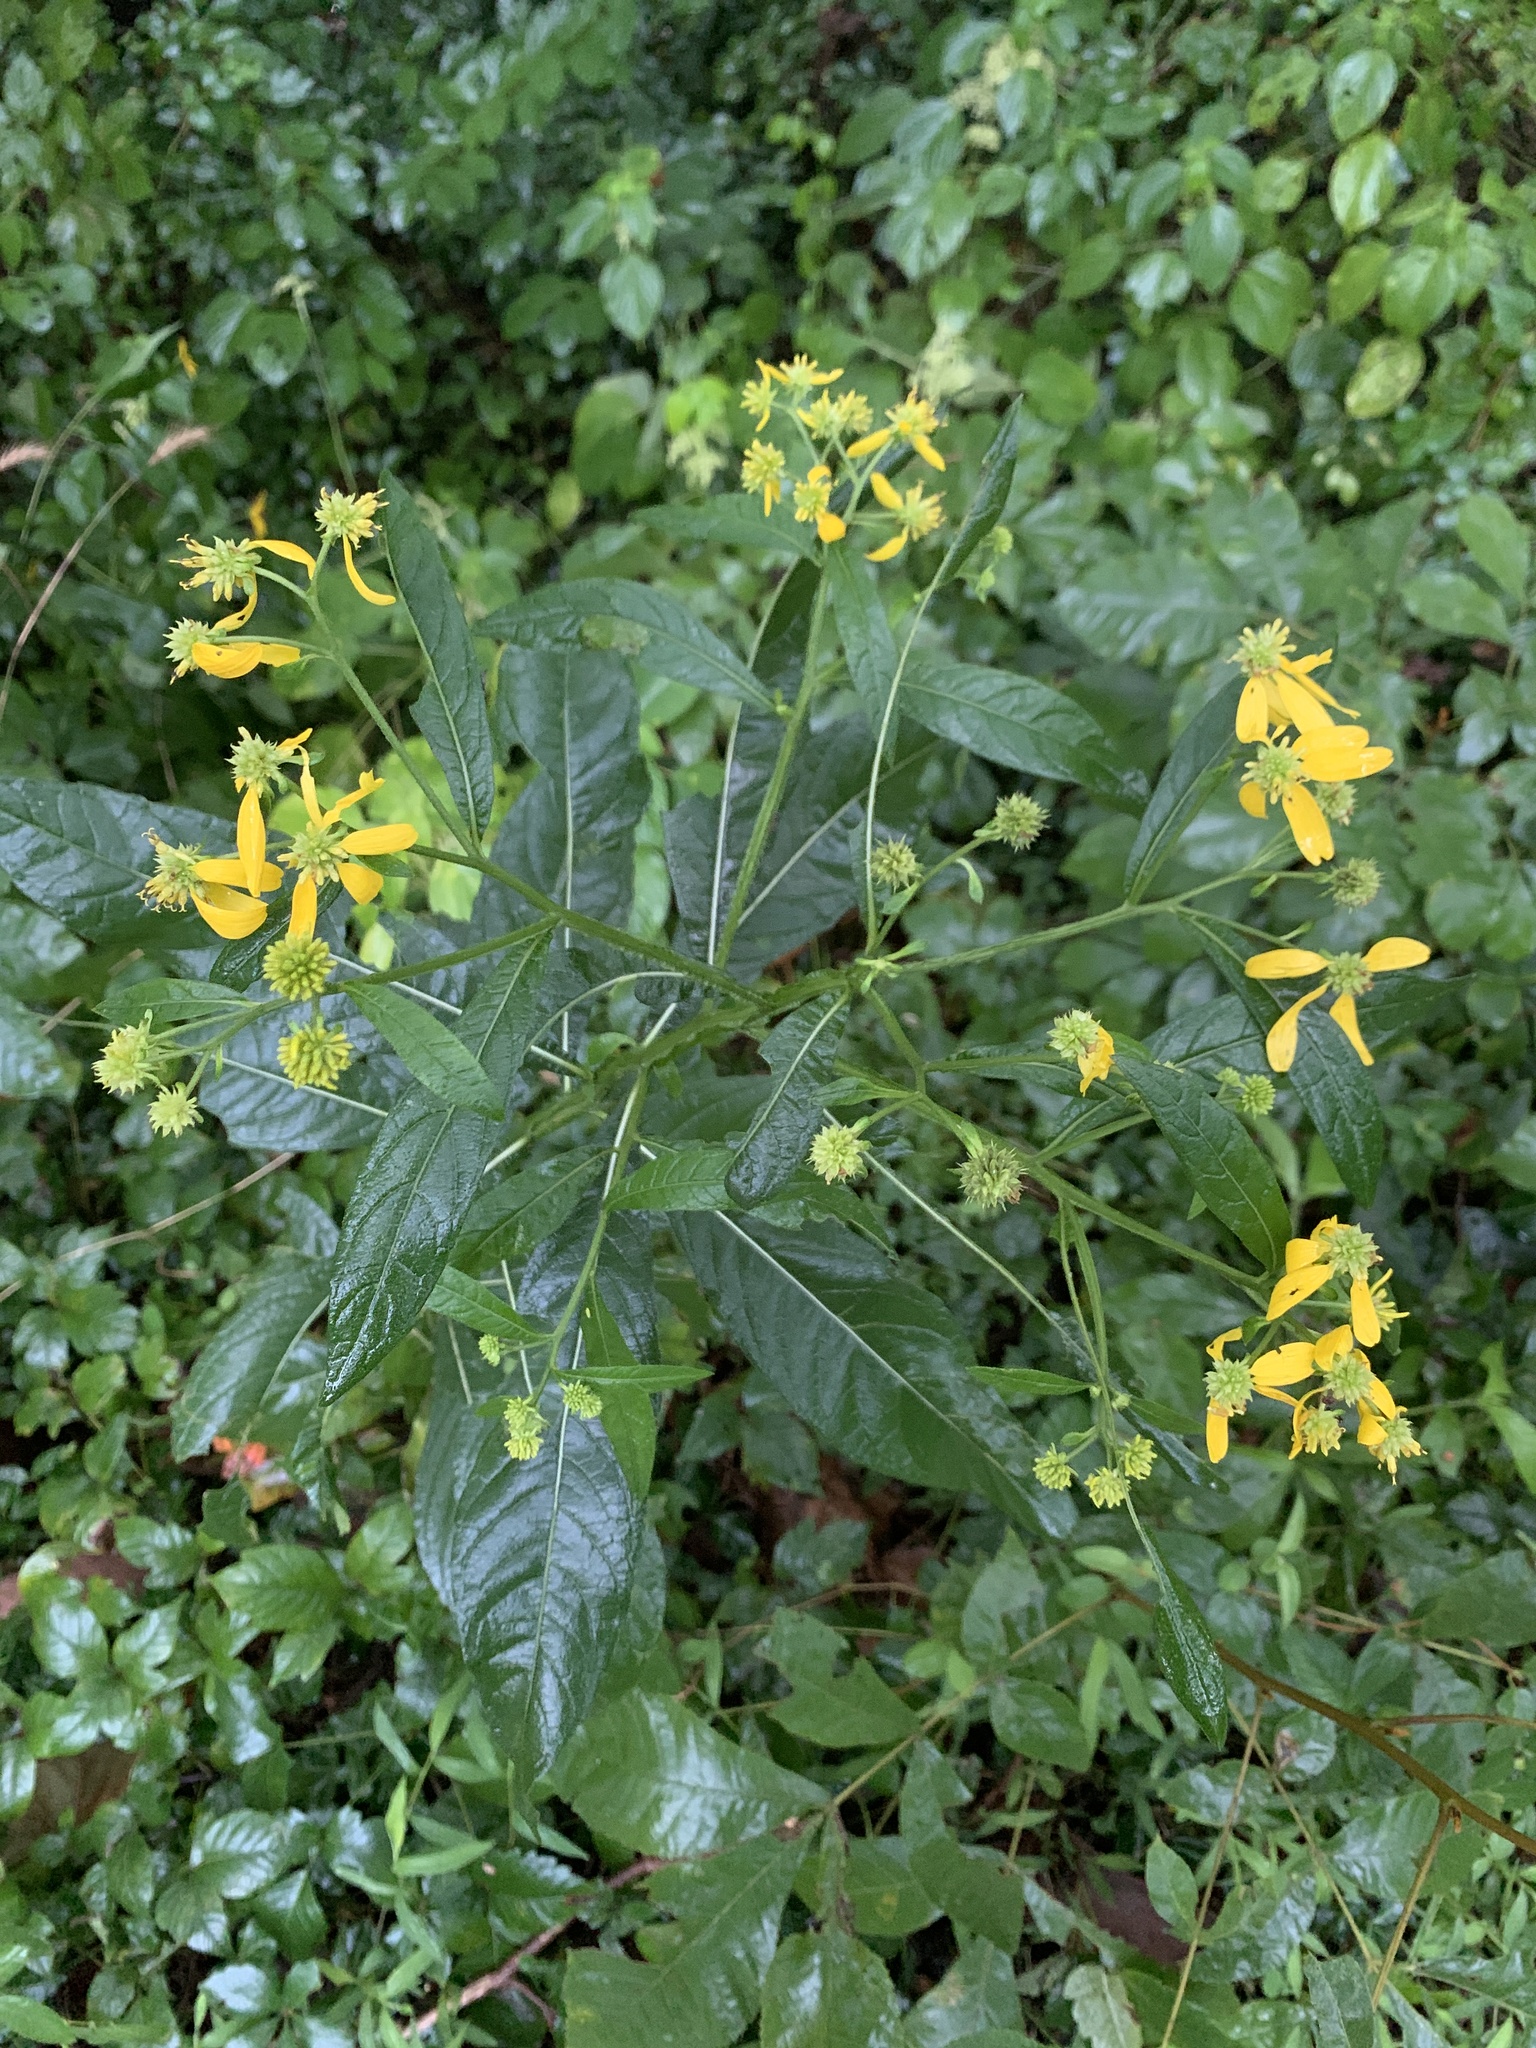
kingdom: Plantae
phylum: Tracheophyta
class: Magnoliopsida
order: Asterales
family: Asteraceae
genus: Verbesina
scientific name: Verbesina alternifolia
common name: Wingstem
